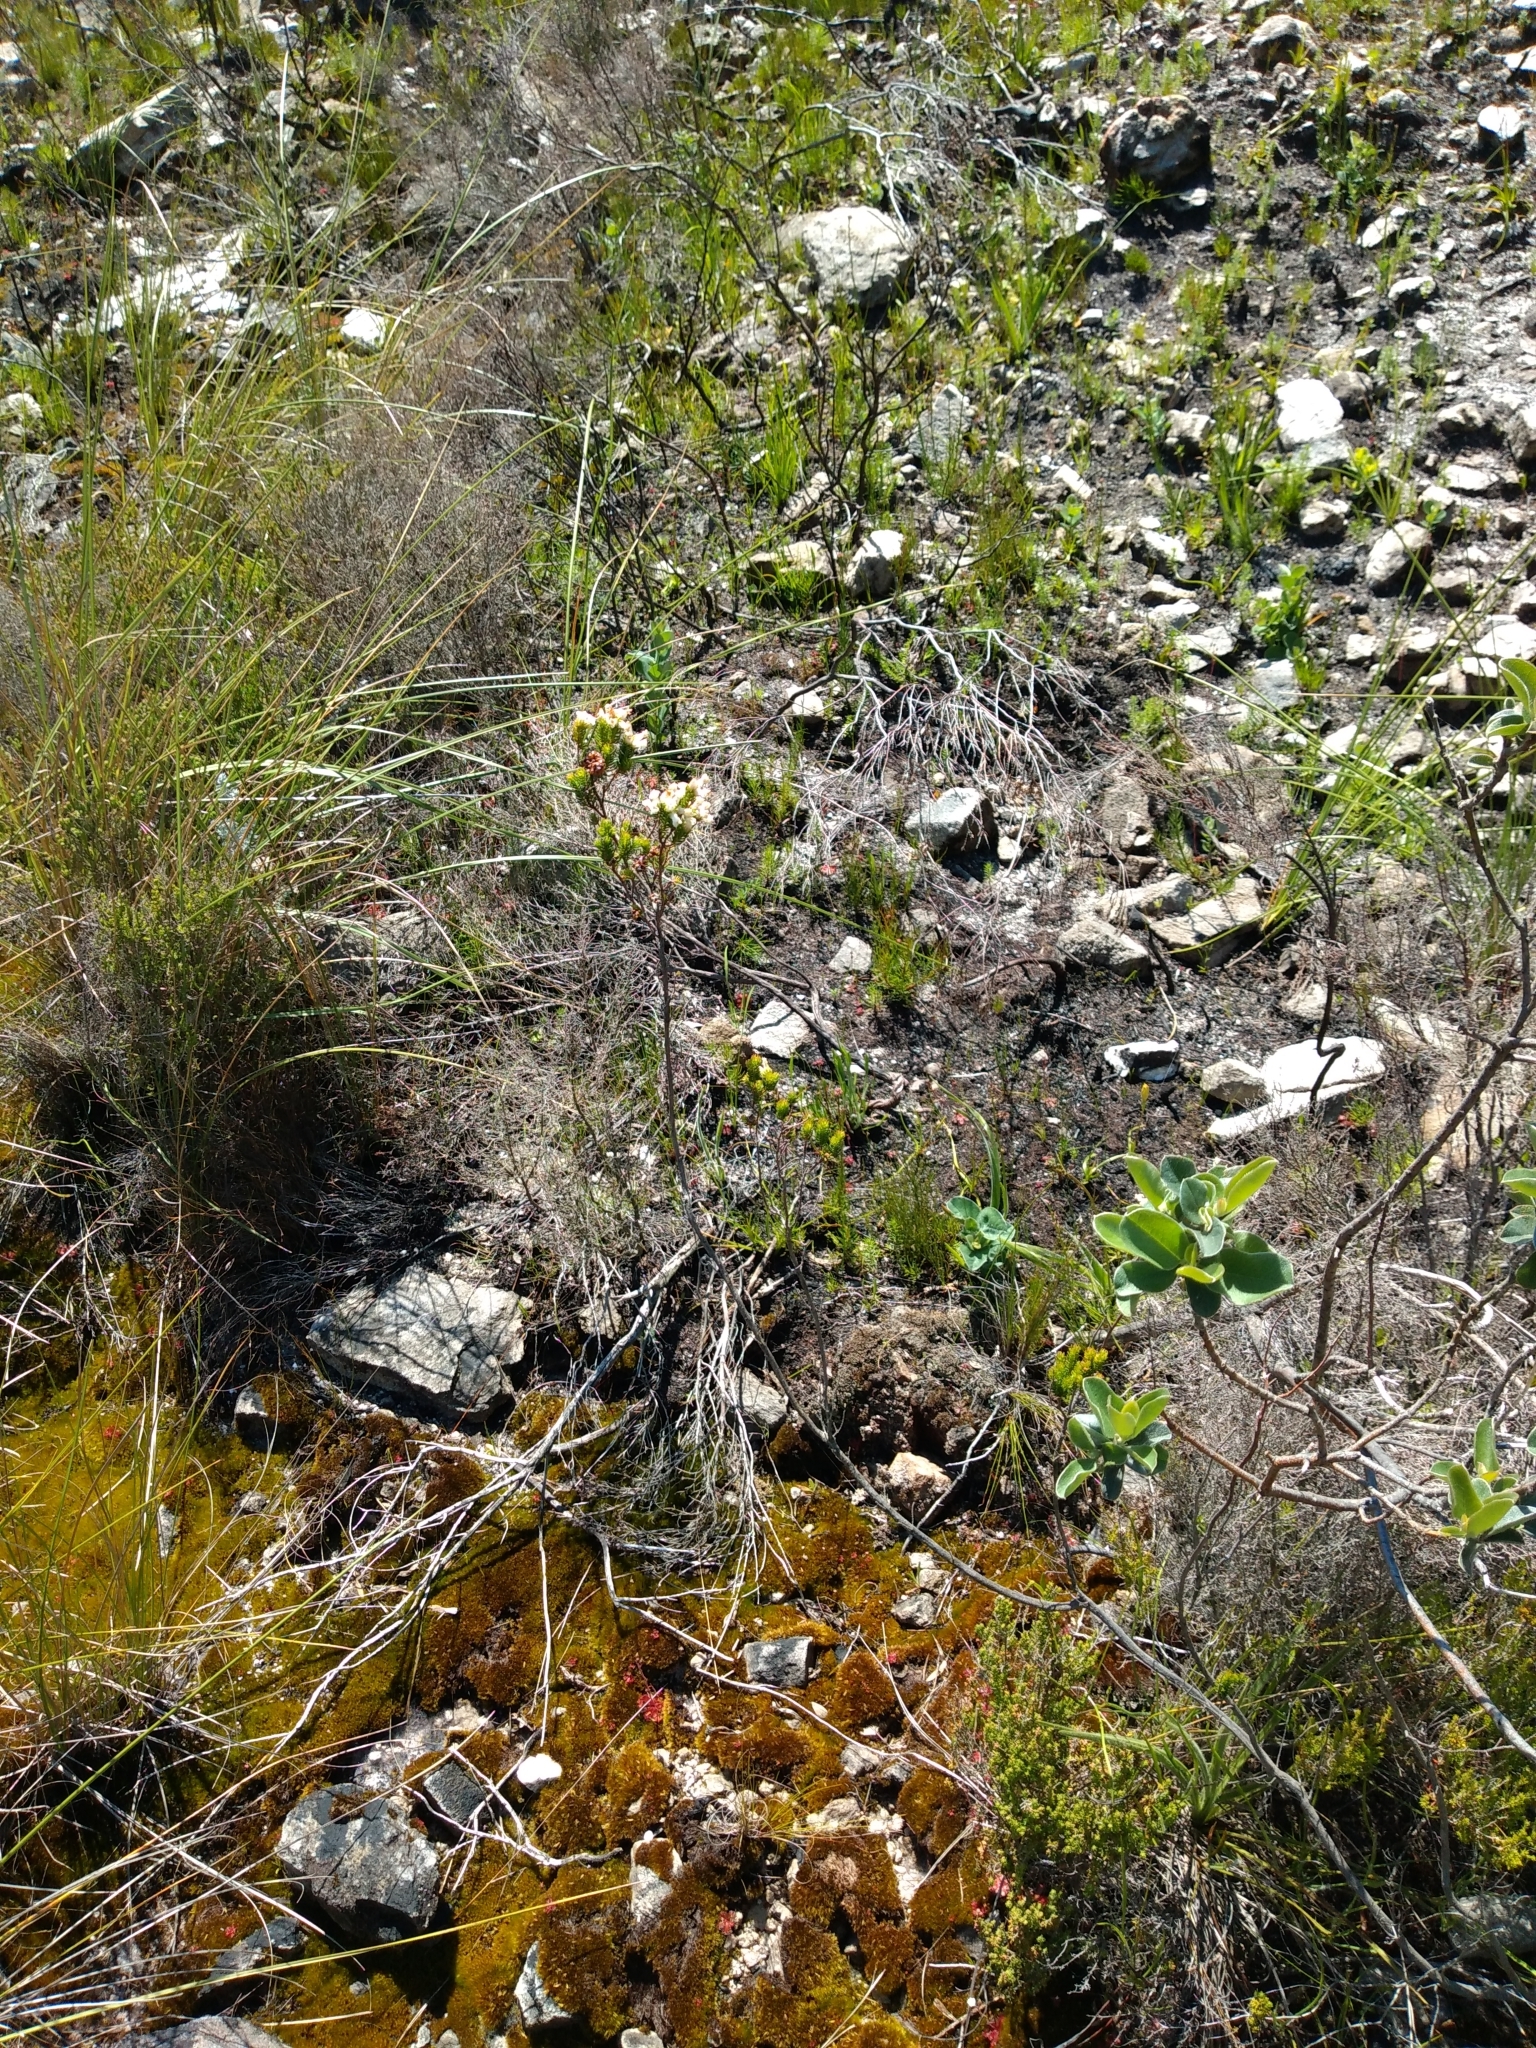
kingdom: Plantae
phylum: Tracheophyta
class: Magnoliopsida
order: Ericales
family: Ericaceae
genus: Erica
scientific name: Erica denticulata
